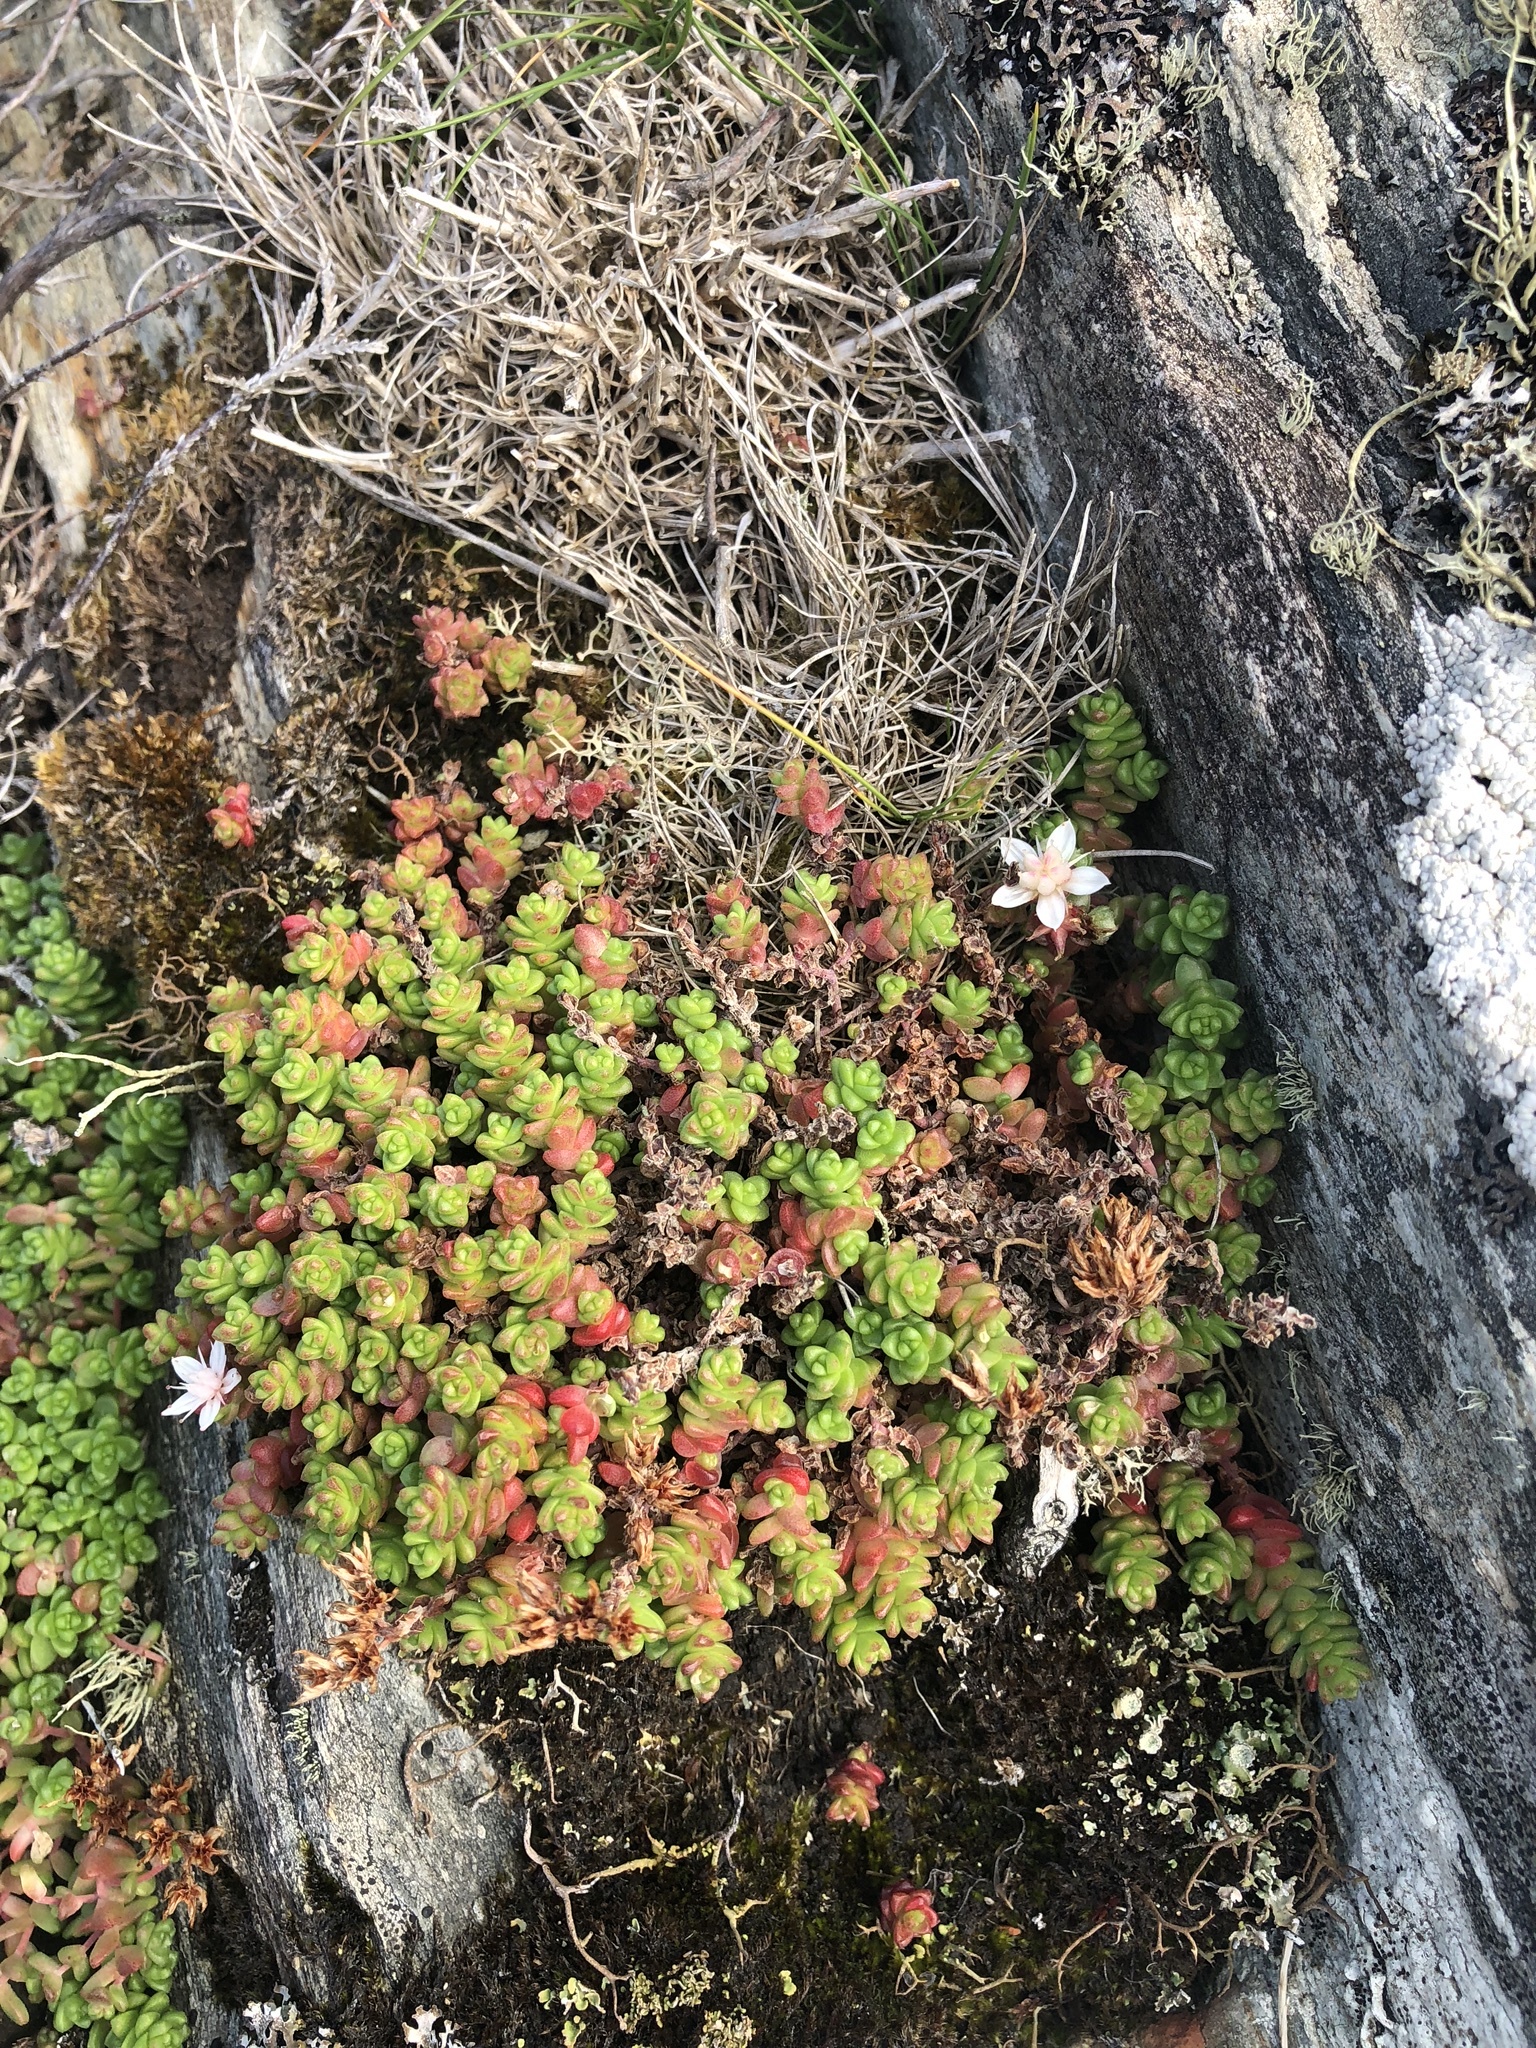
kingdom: Plantae
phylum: Tracheophyta
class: Magnoliopsida
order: Saxifragales
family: Crassulaceae
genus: Sedum
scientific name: Sedum anglicum
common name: English stonecrop
